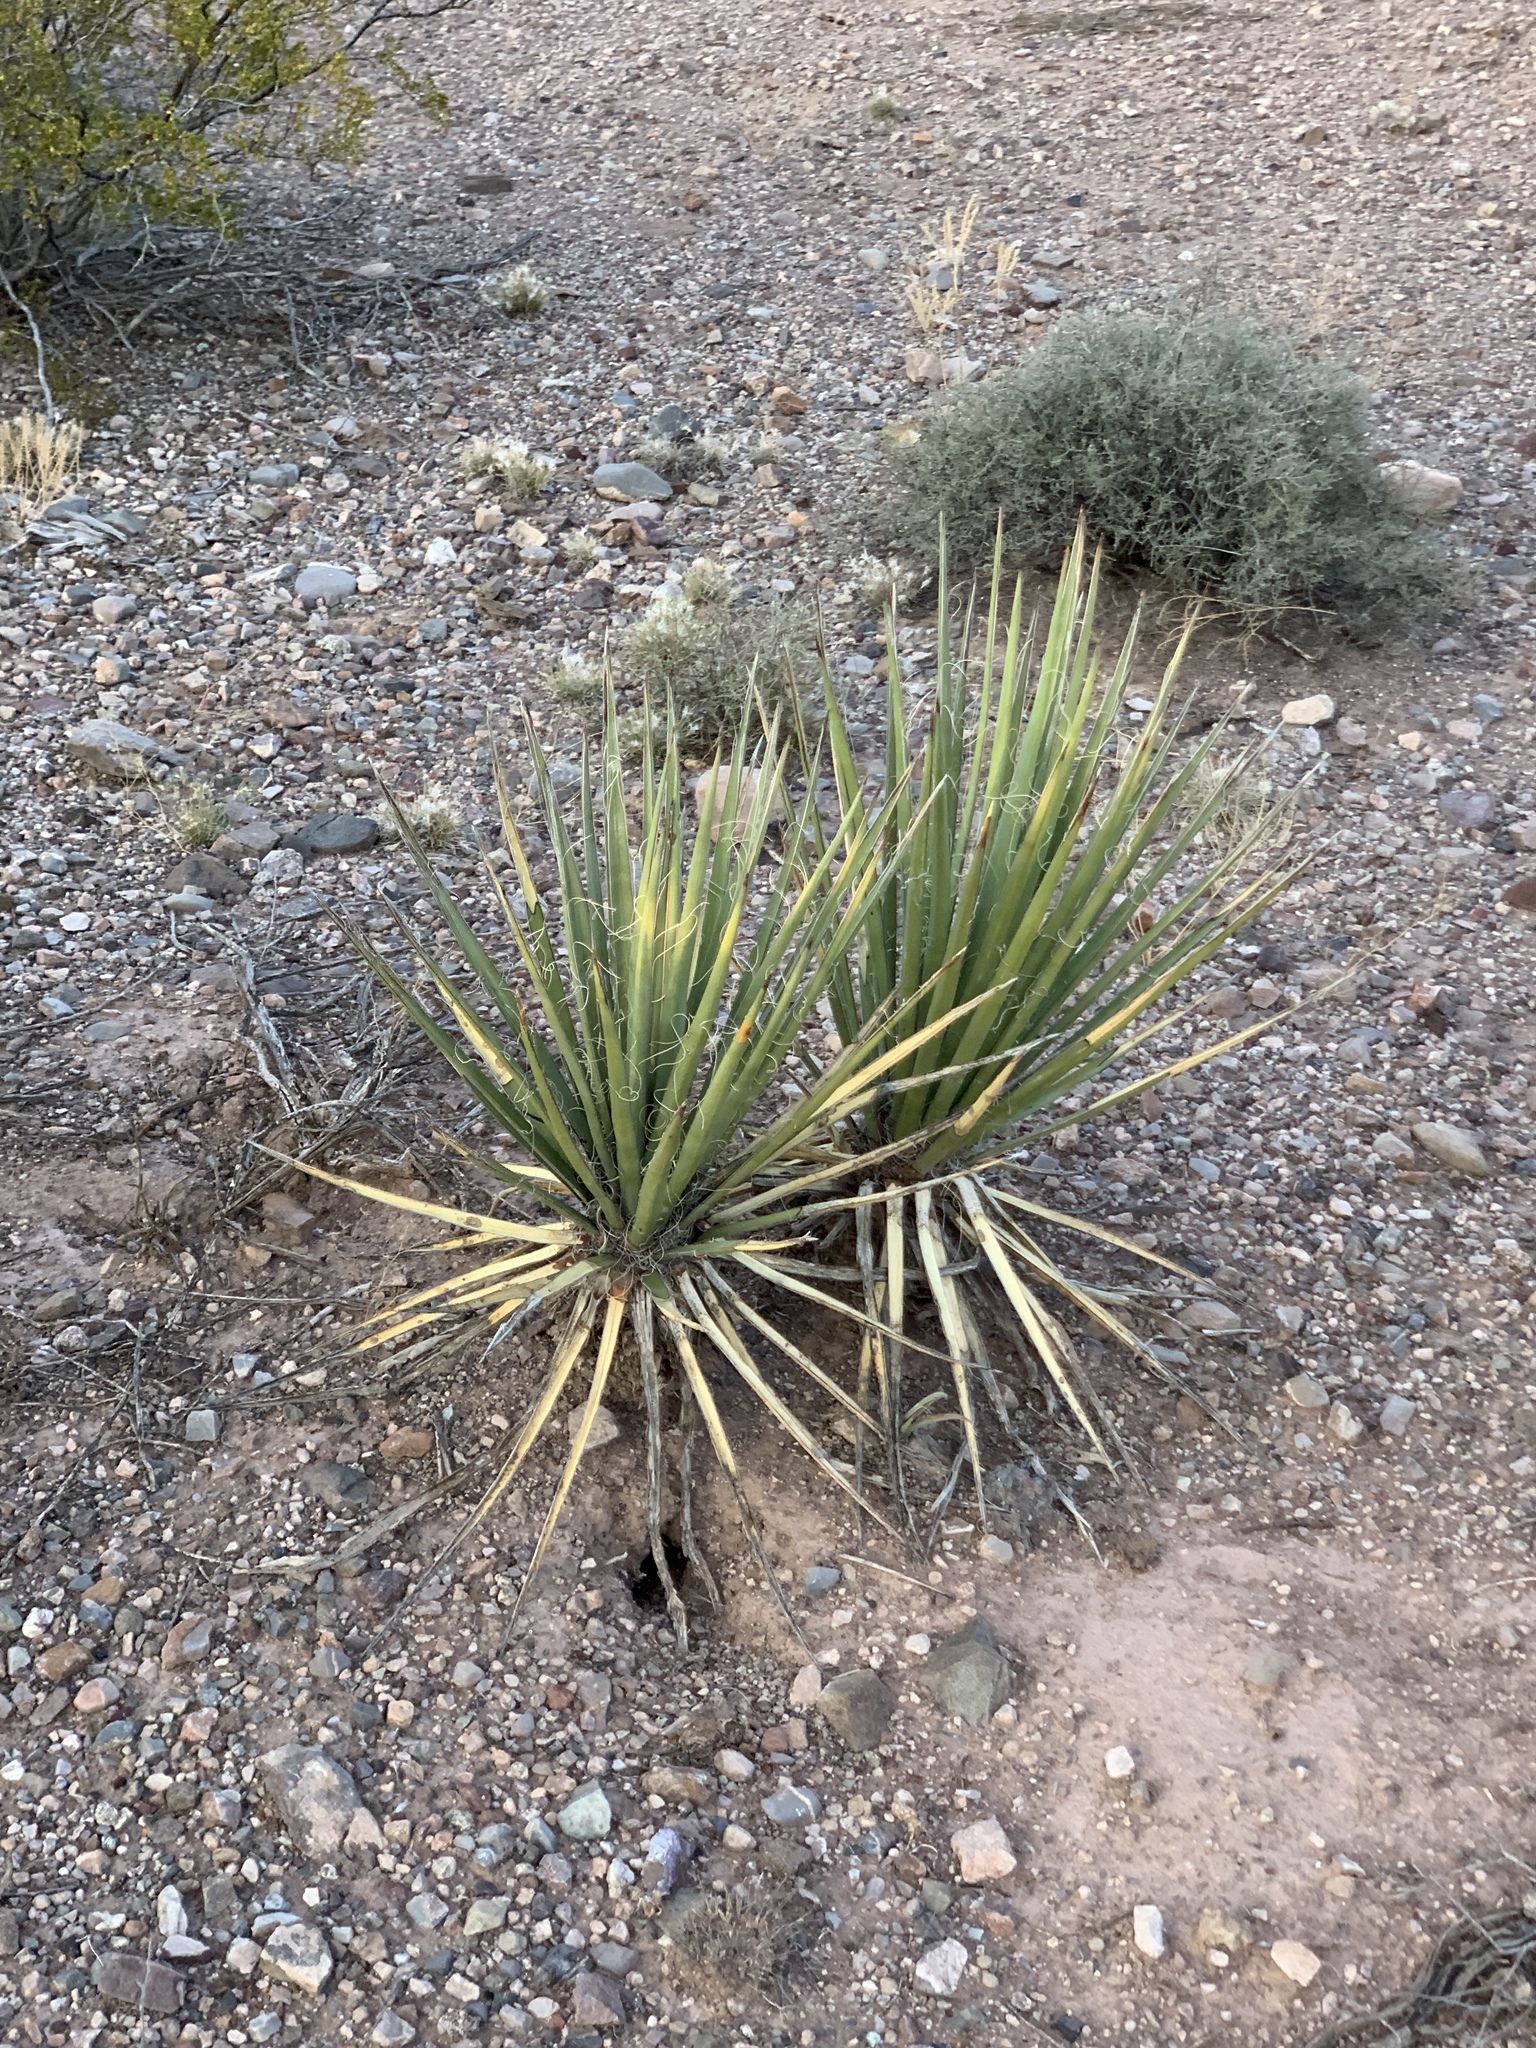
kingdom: Plantae
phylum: Tracheophyta
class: Liliopsida
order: Asparagales
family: Asparagaceae
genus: Yucca
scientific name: Yucca baccata
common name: Banana yucca
